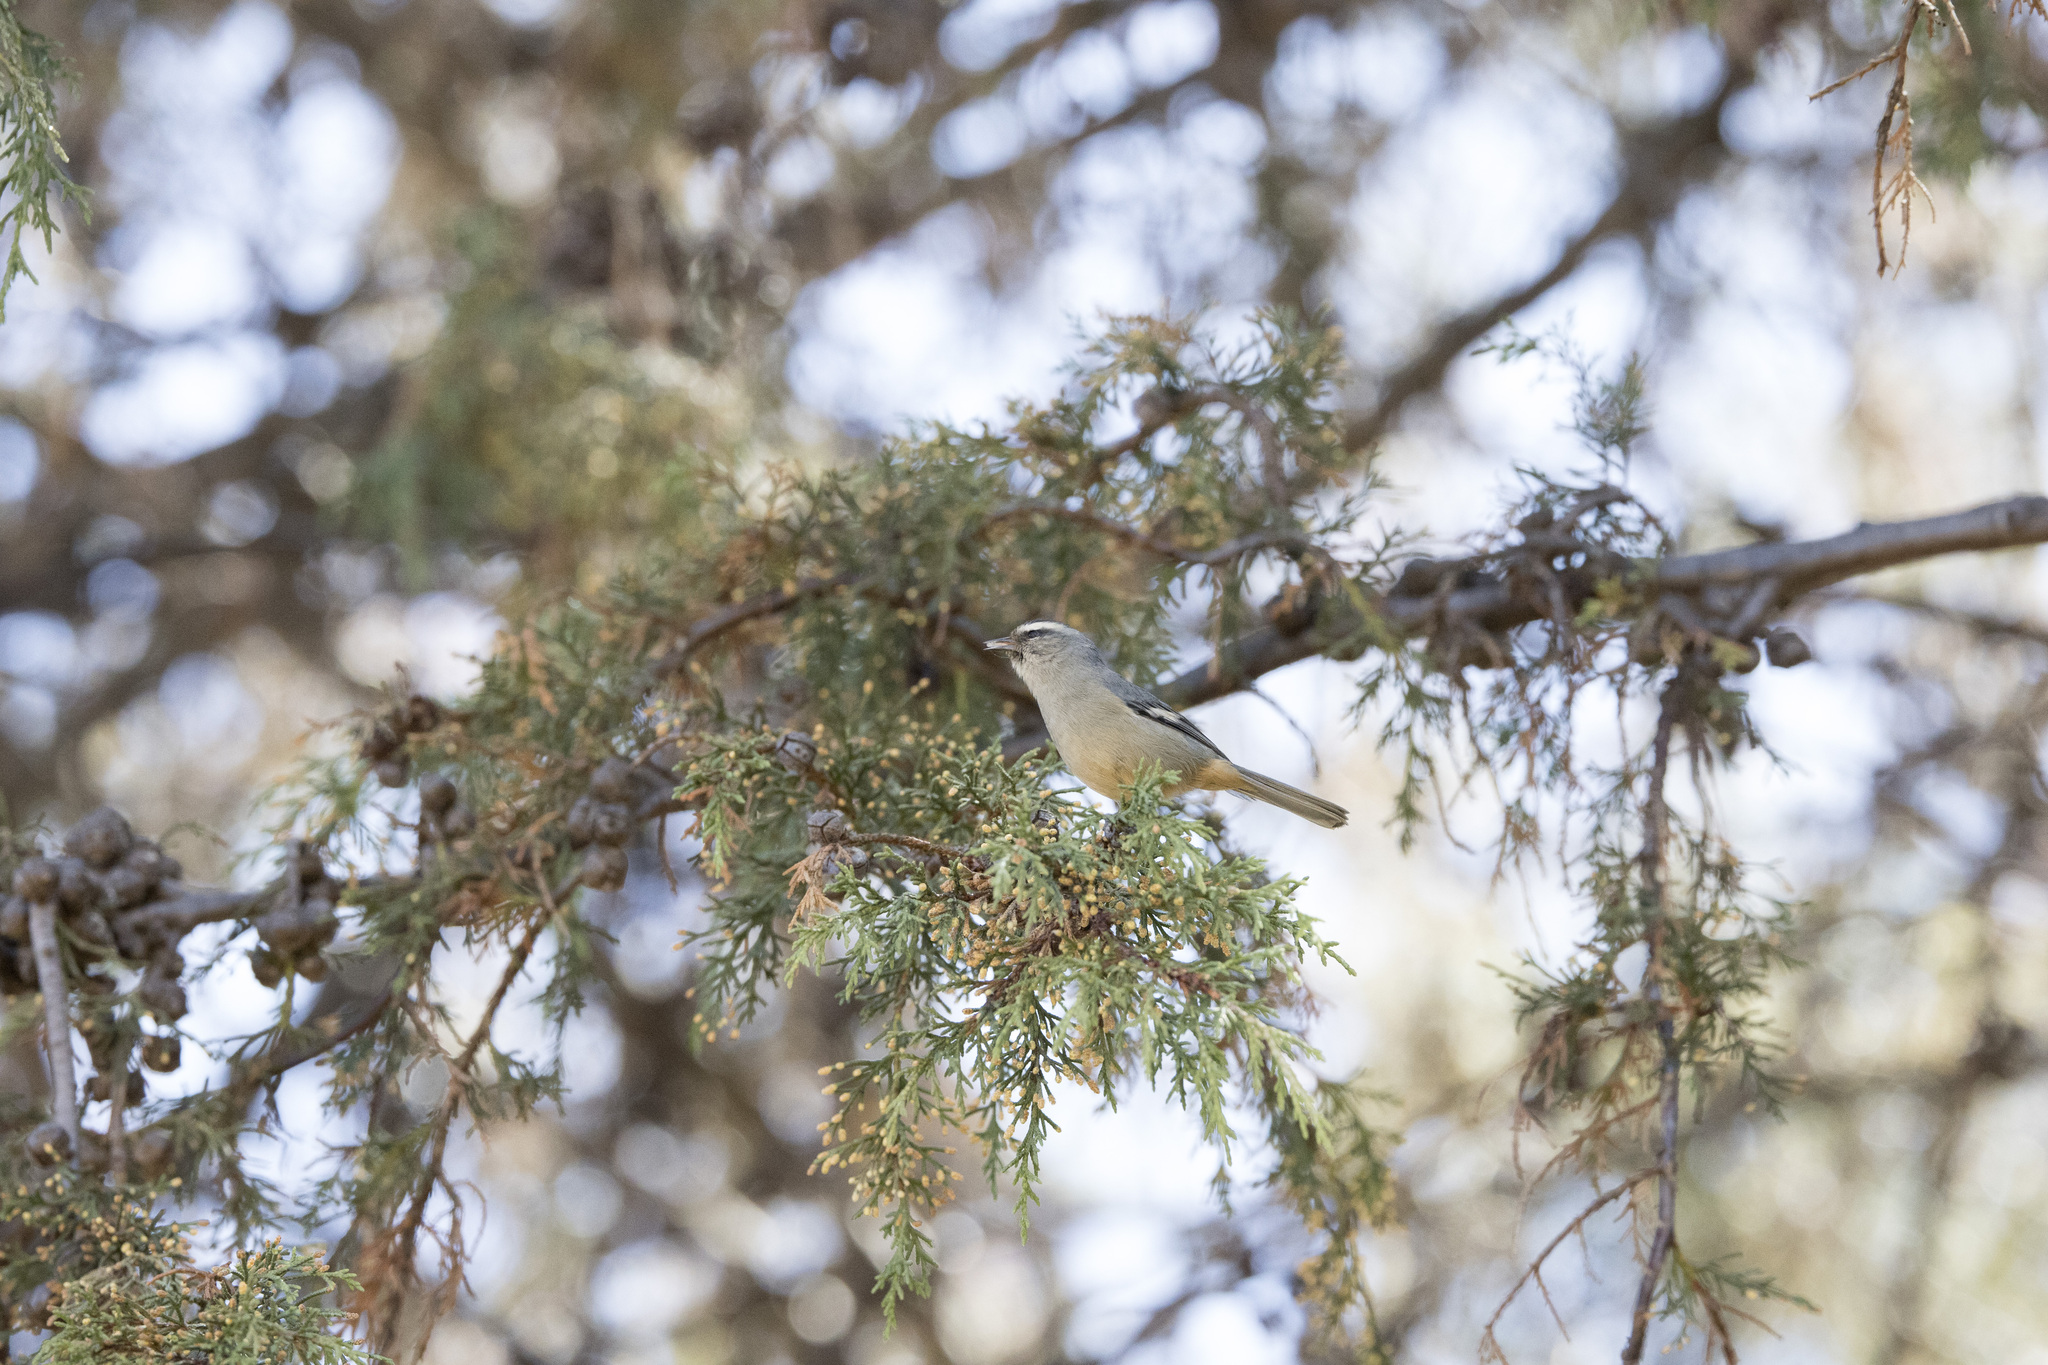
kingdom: Animalia
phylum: Chordata
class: Aves
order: Passeriformes
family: Thraupidae
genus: Conirostrum
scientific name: Conirostrum cinereum
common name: Cinereous conebill
